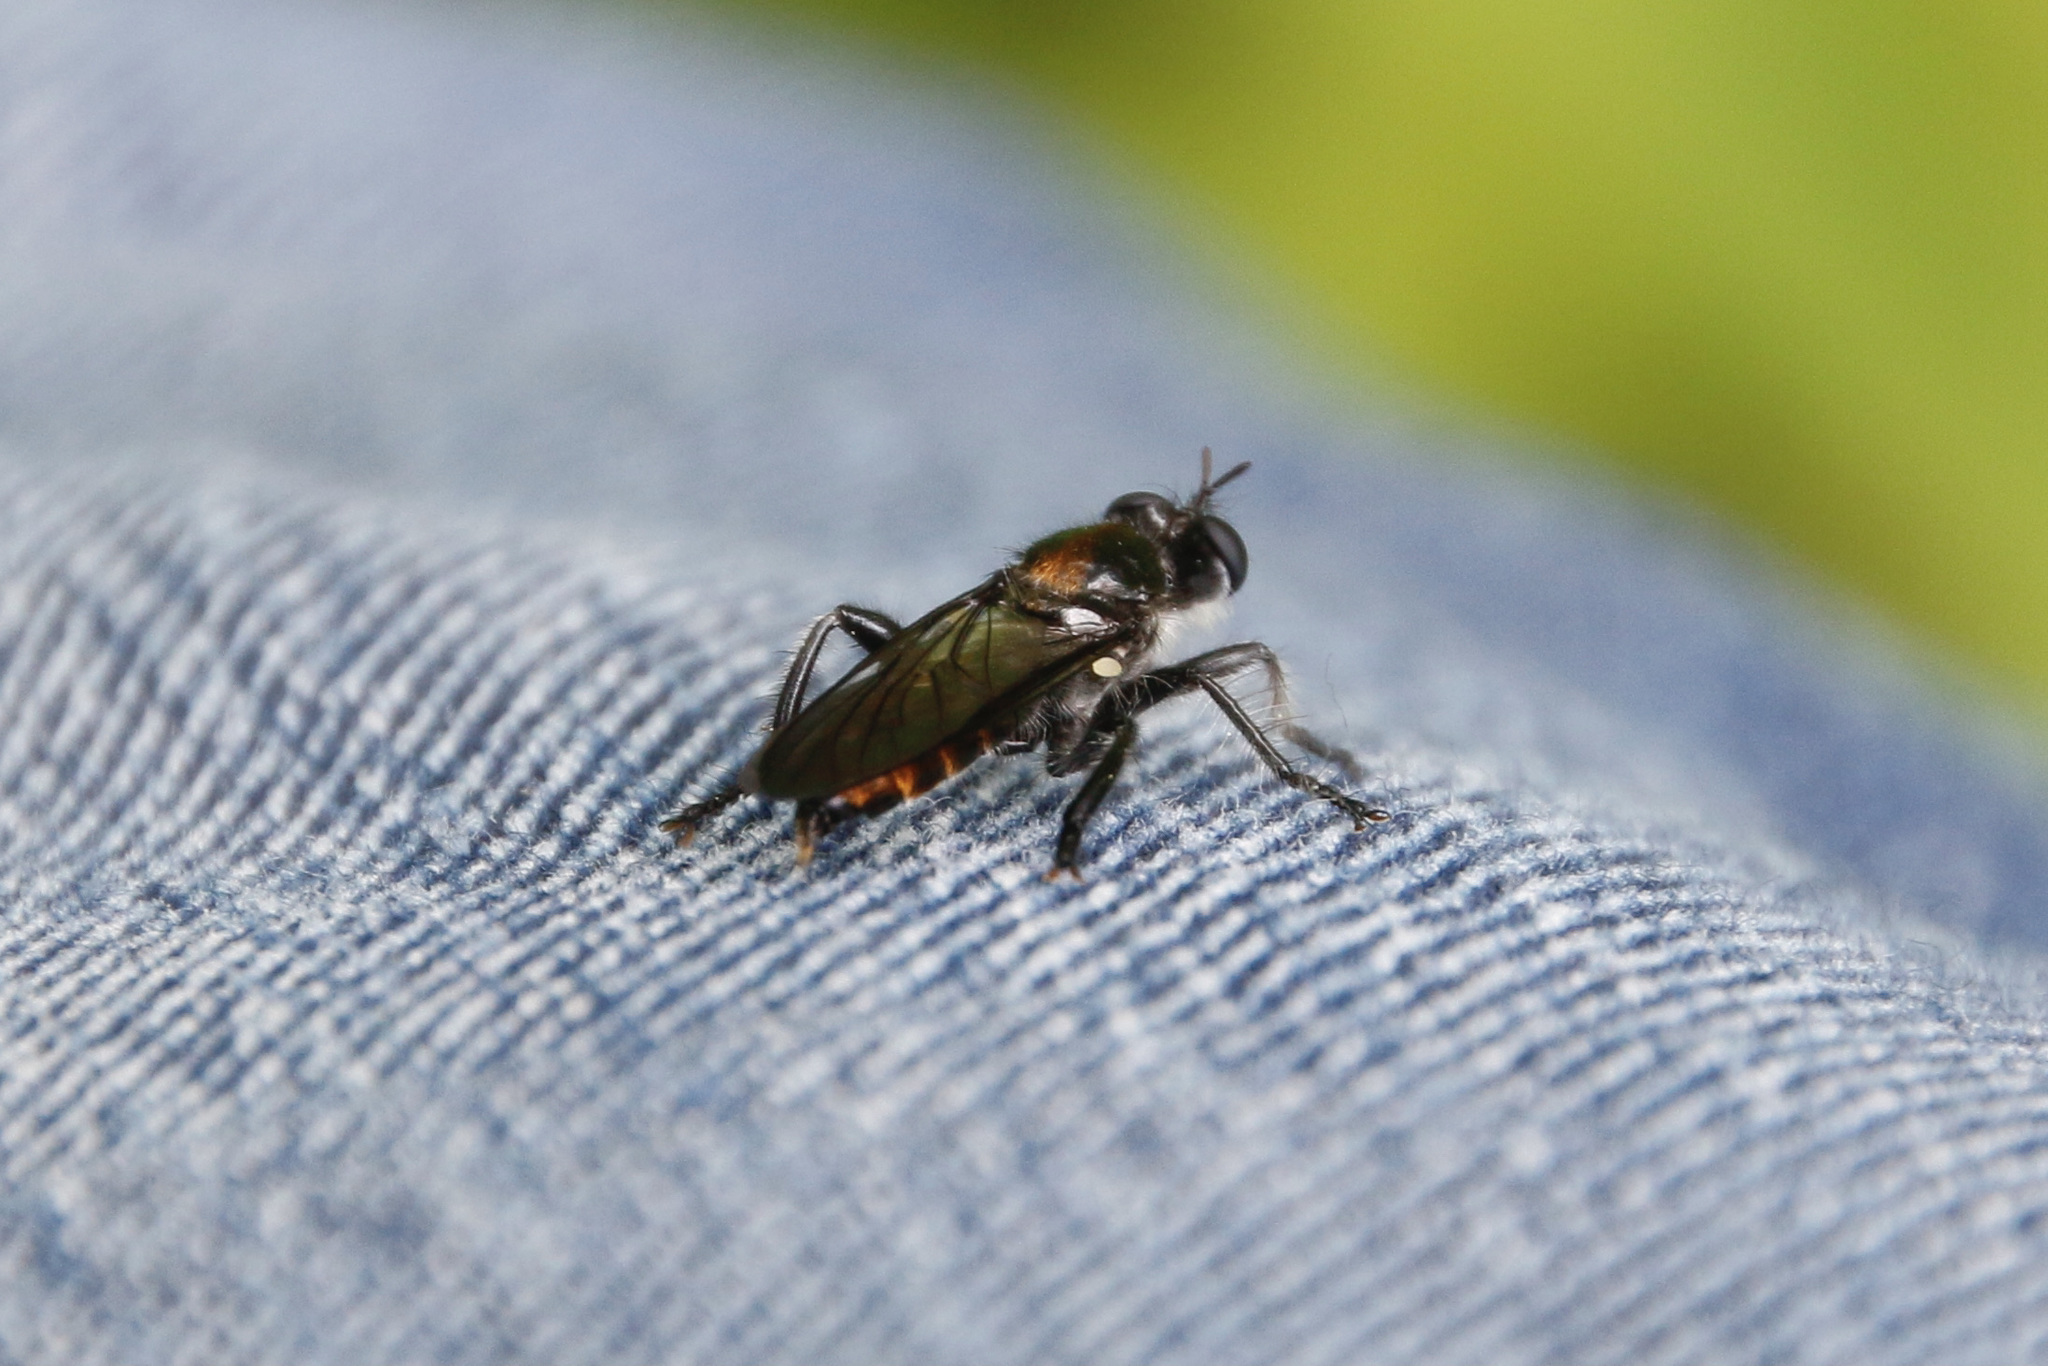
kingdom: Animalia
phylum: Arthropoda
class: Insecta
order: Diptera
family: Asilidae
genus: Laphria
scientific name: Laphria
